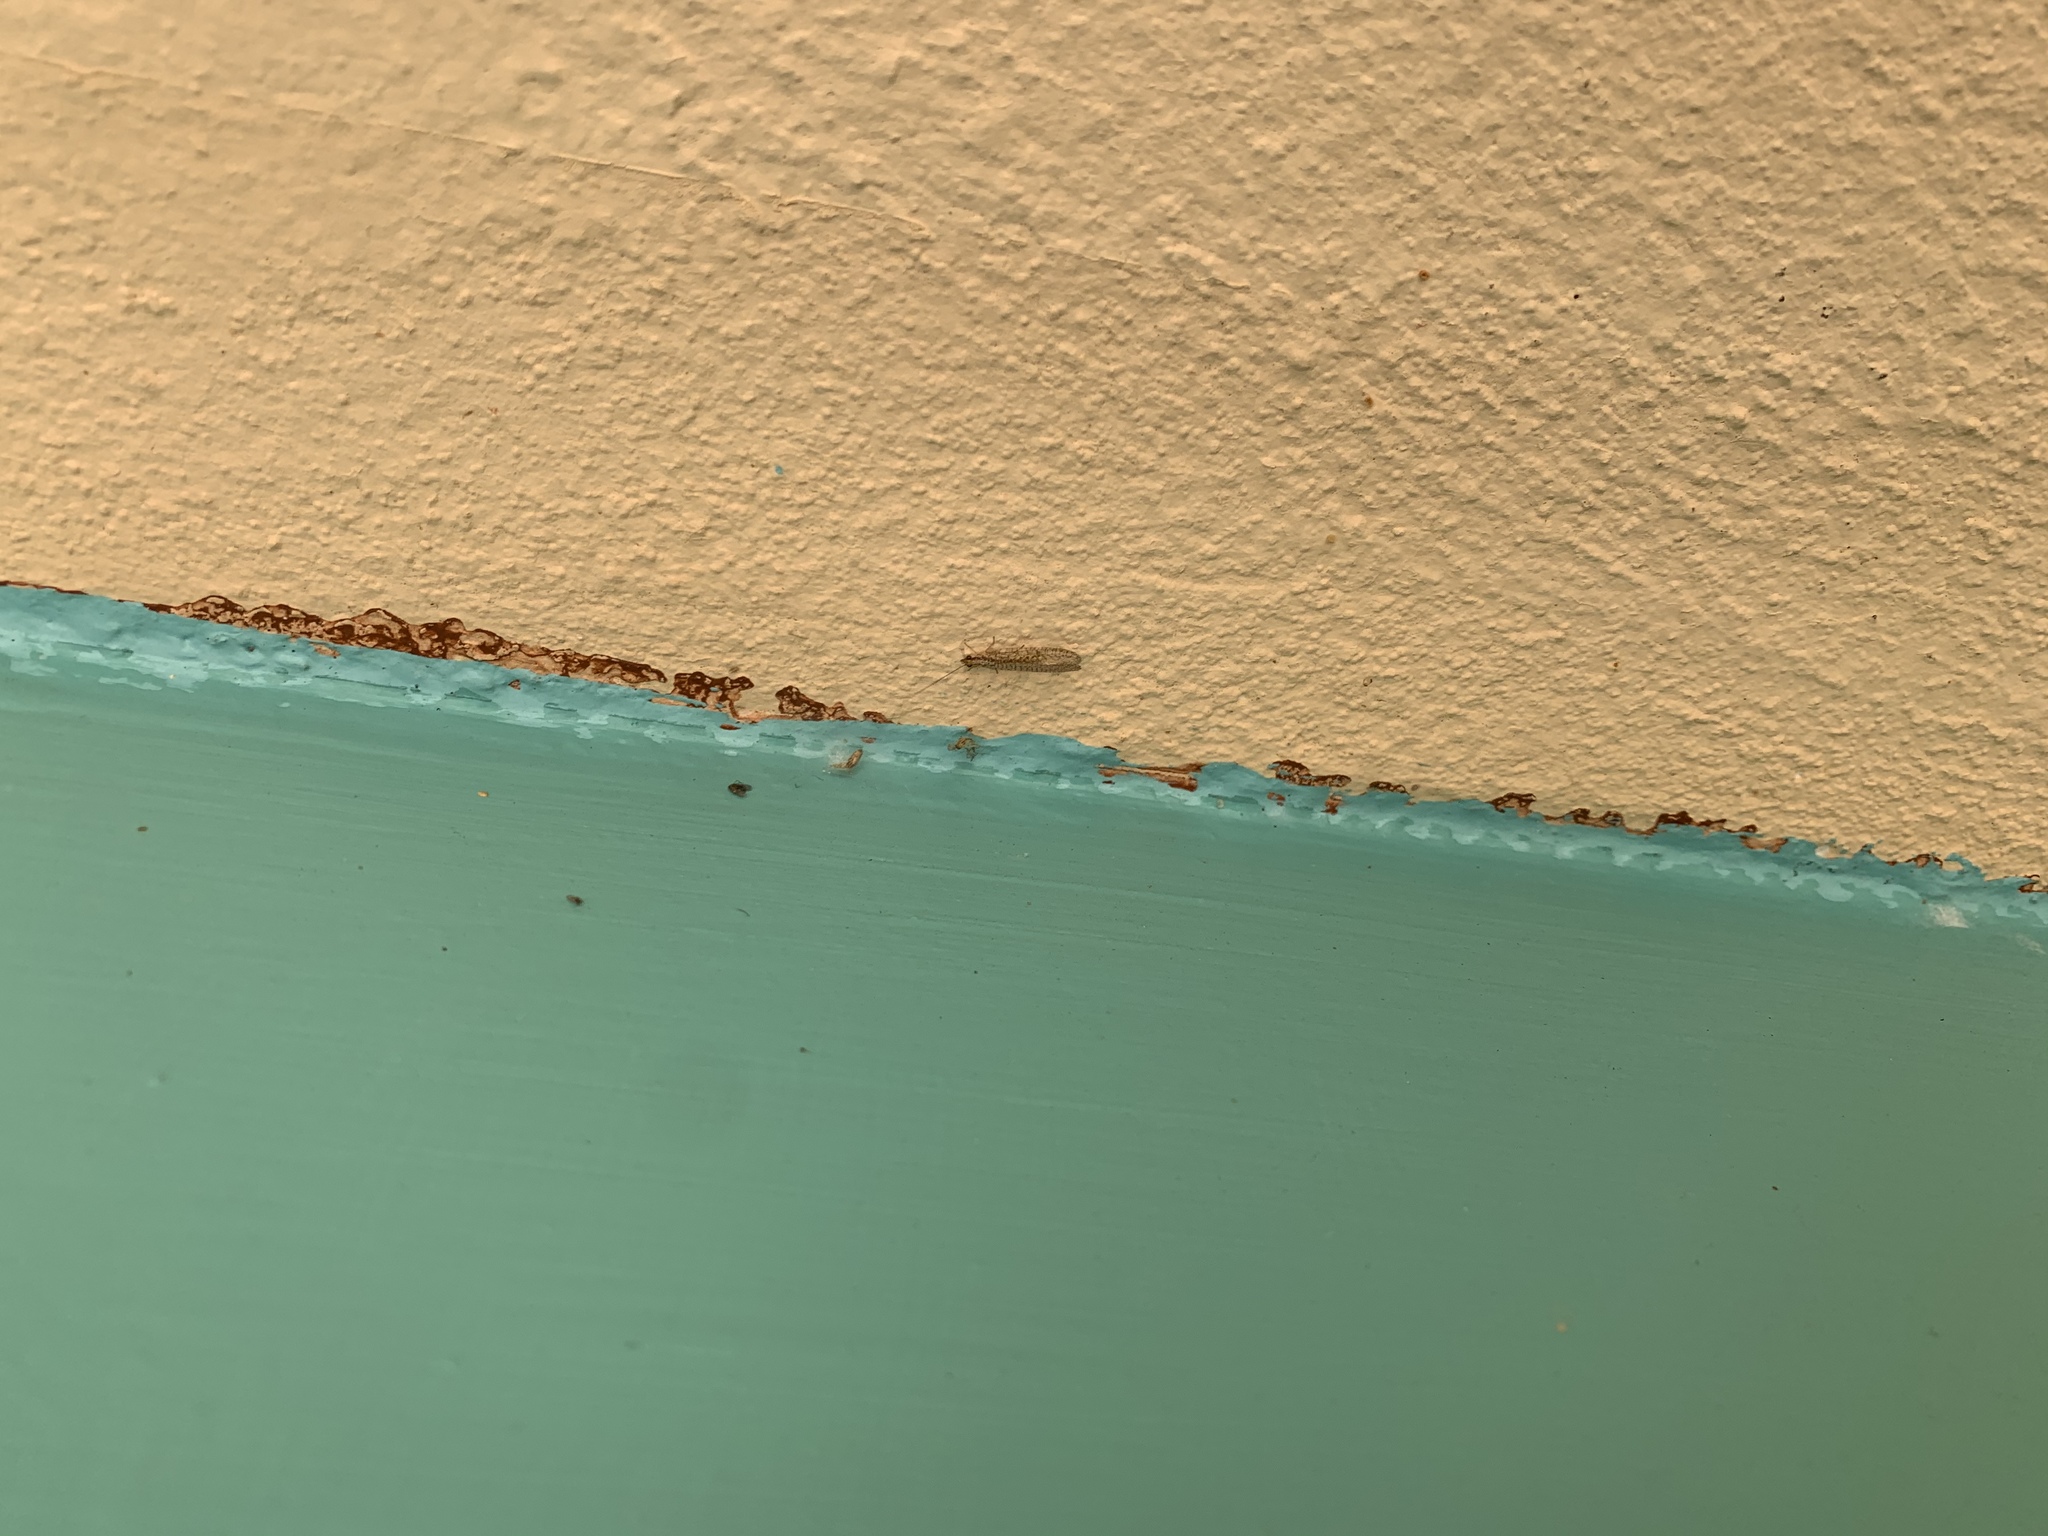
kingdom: Animalia
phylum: Arthropoda
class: Insecta
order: Neuroptera
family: Chrysopidae
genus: Eremochrysa
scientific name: Eremochrysa punctinervis
